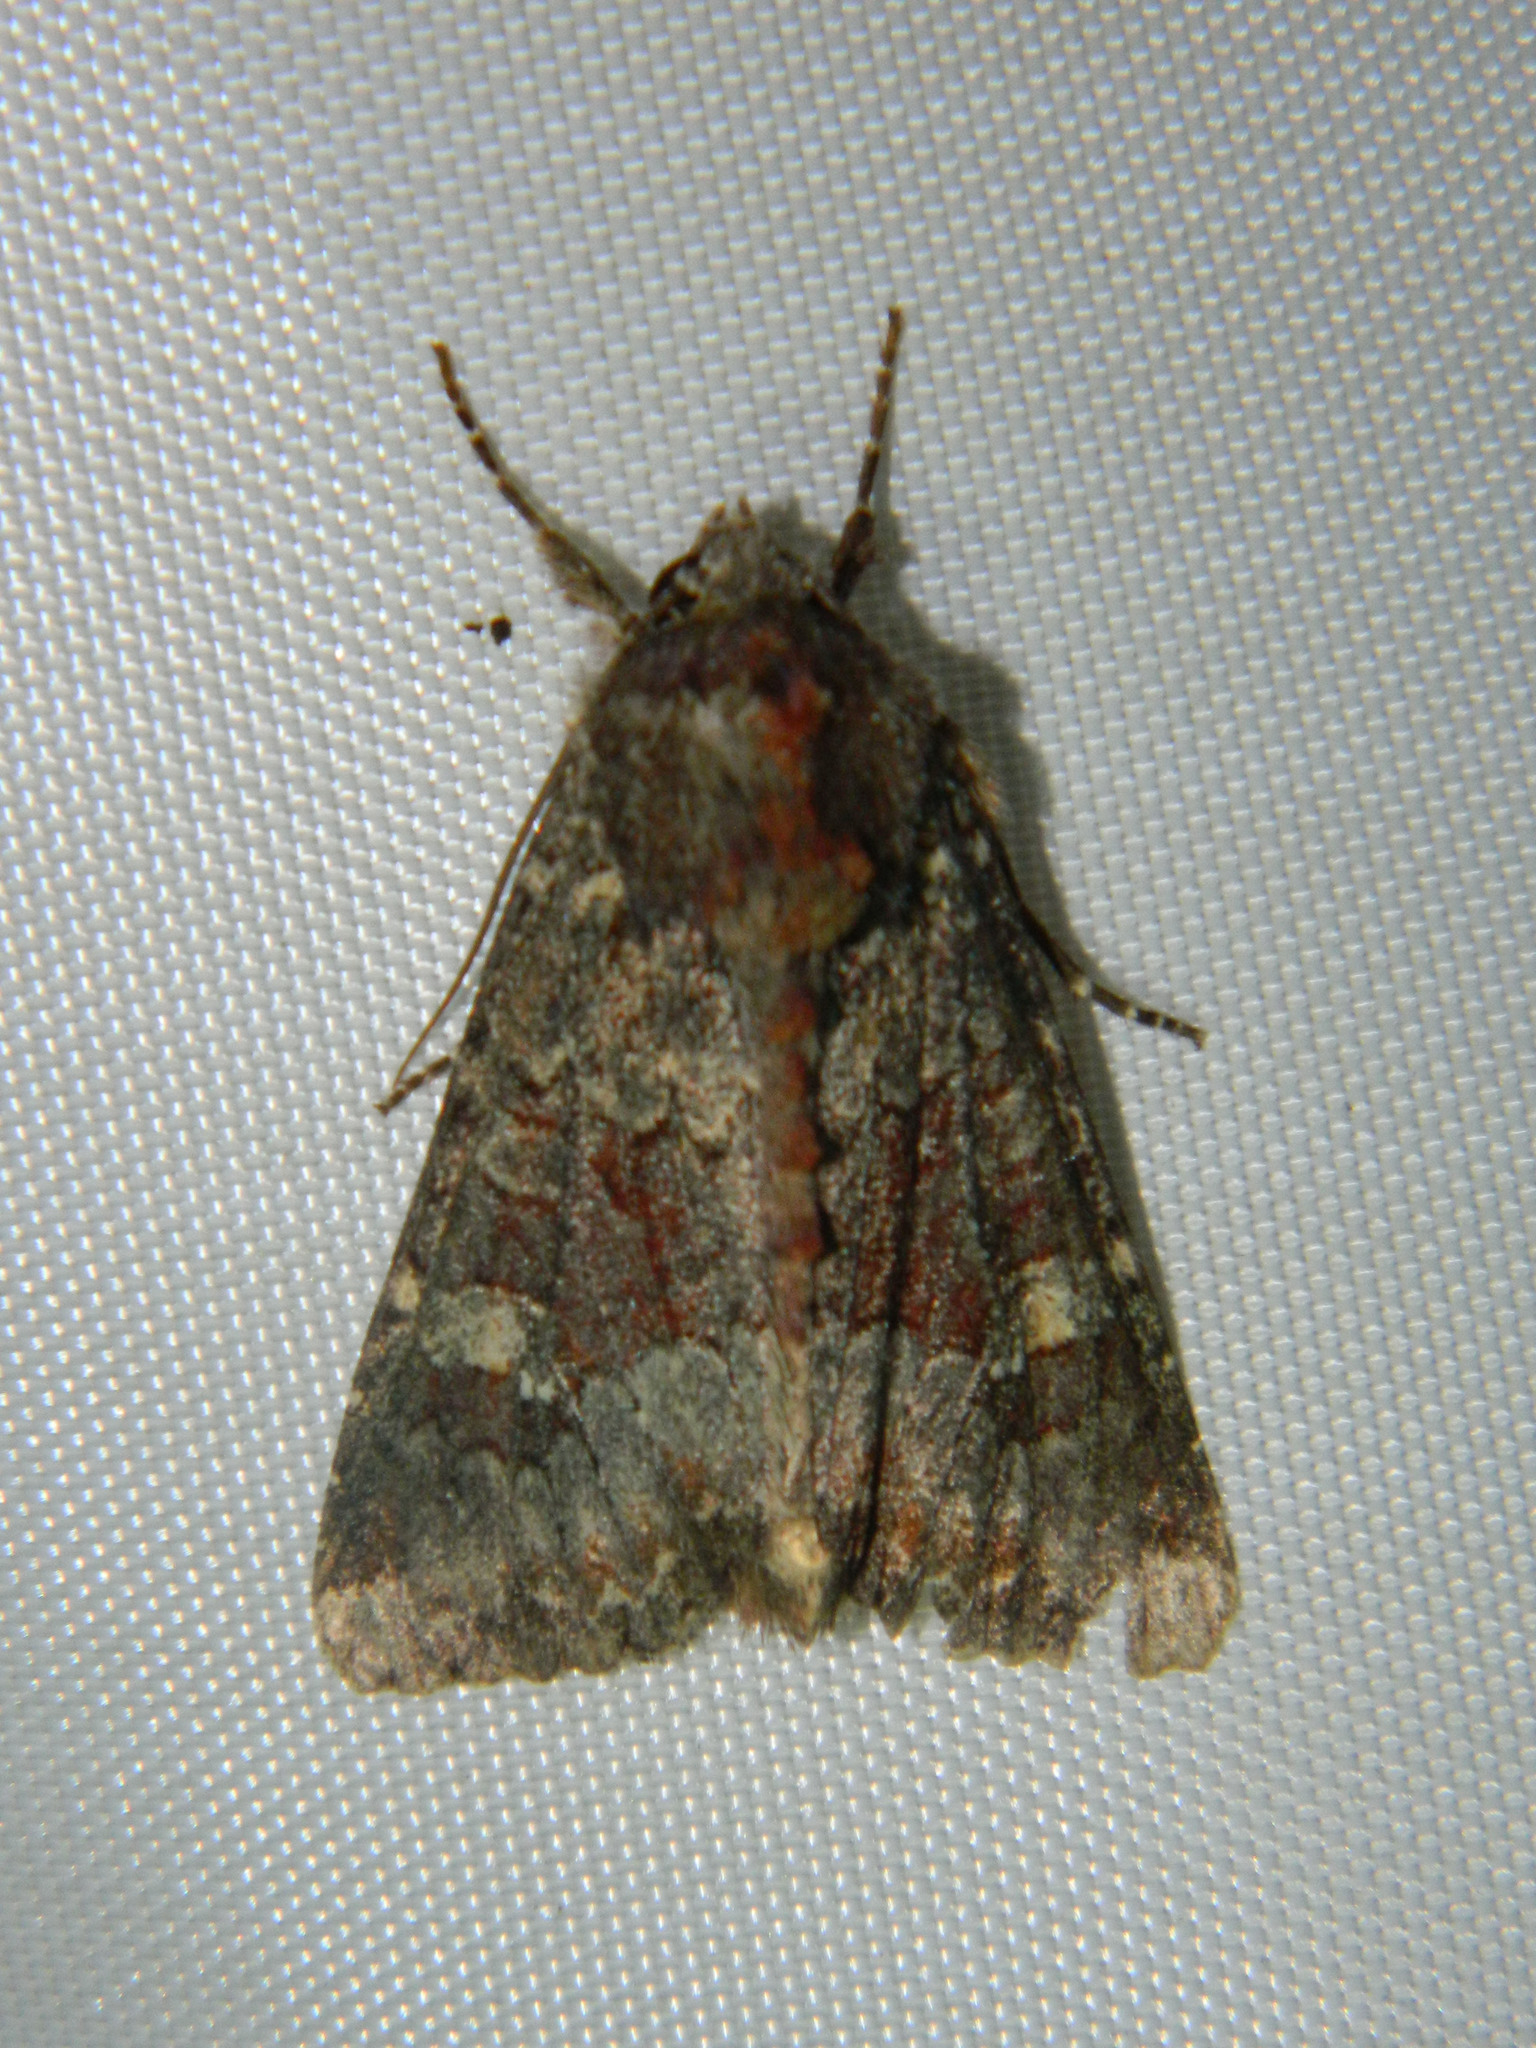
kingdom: Animalia
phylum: Arthropoda
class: Insecta
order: Lepidoptera
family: Noctuidae
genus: Apamea
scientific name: Apamea amputatrix
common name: Yellow-headed cutworm moth
